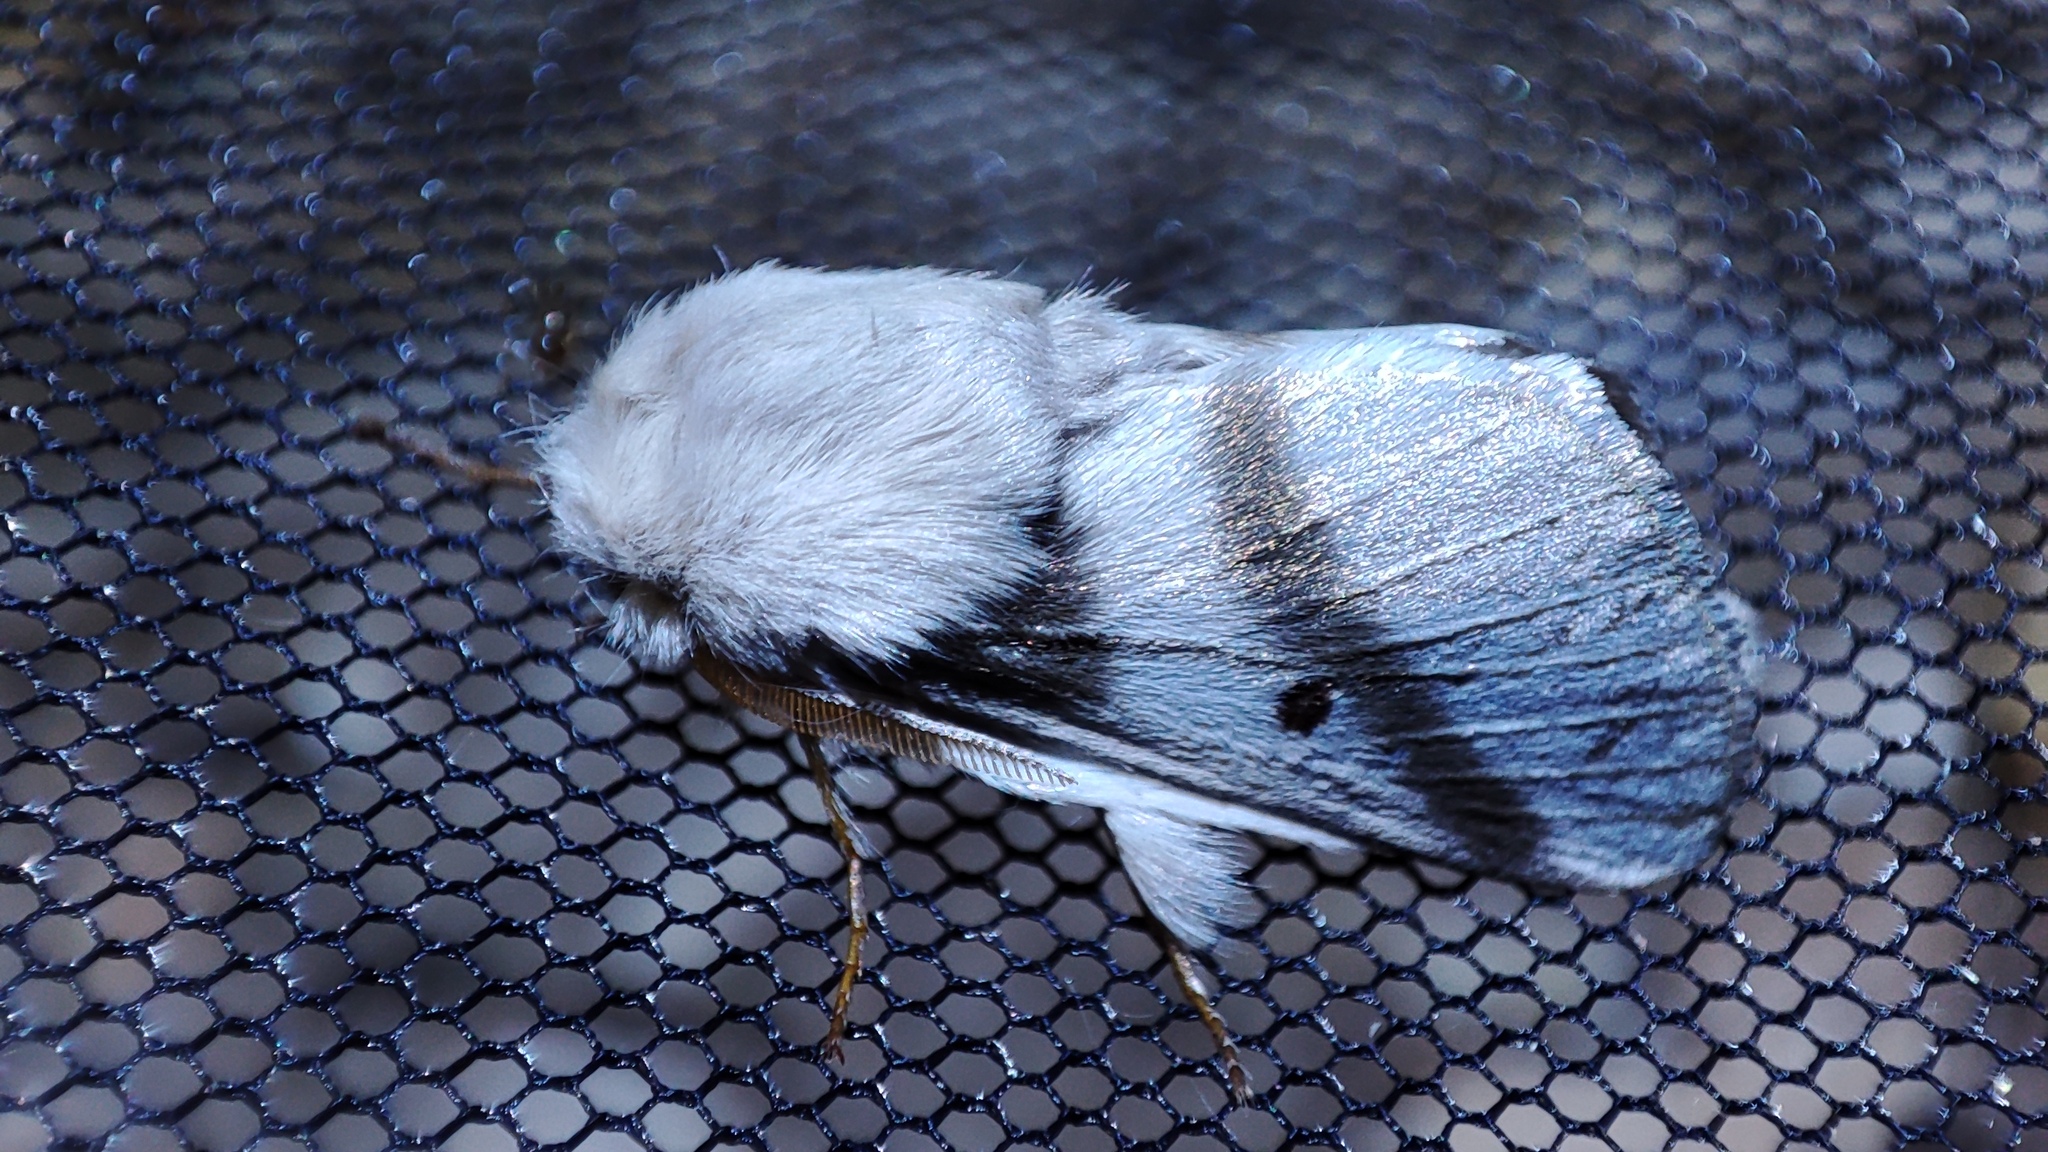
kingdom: Animalia
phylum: Arthropoda
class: Insecta
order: Lepidoptera
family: Lasiocampidae
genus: Bombycomorpha
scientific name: Bombycomorpha bifascia
